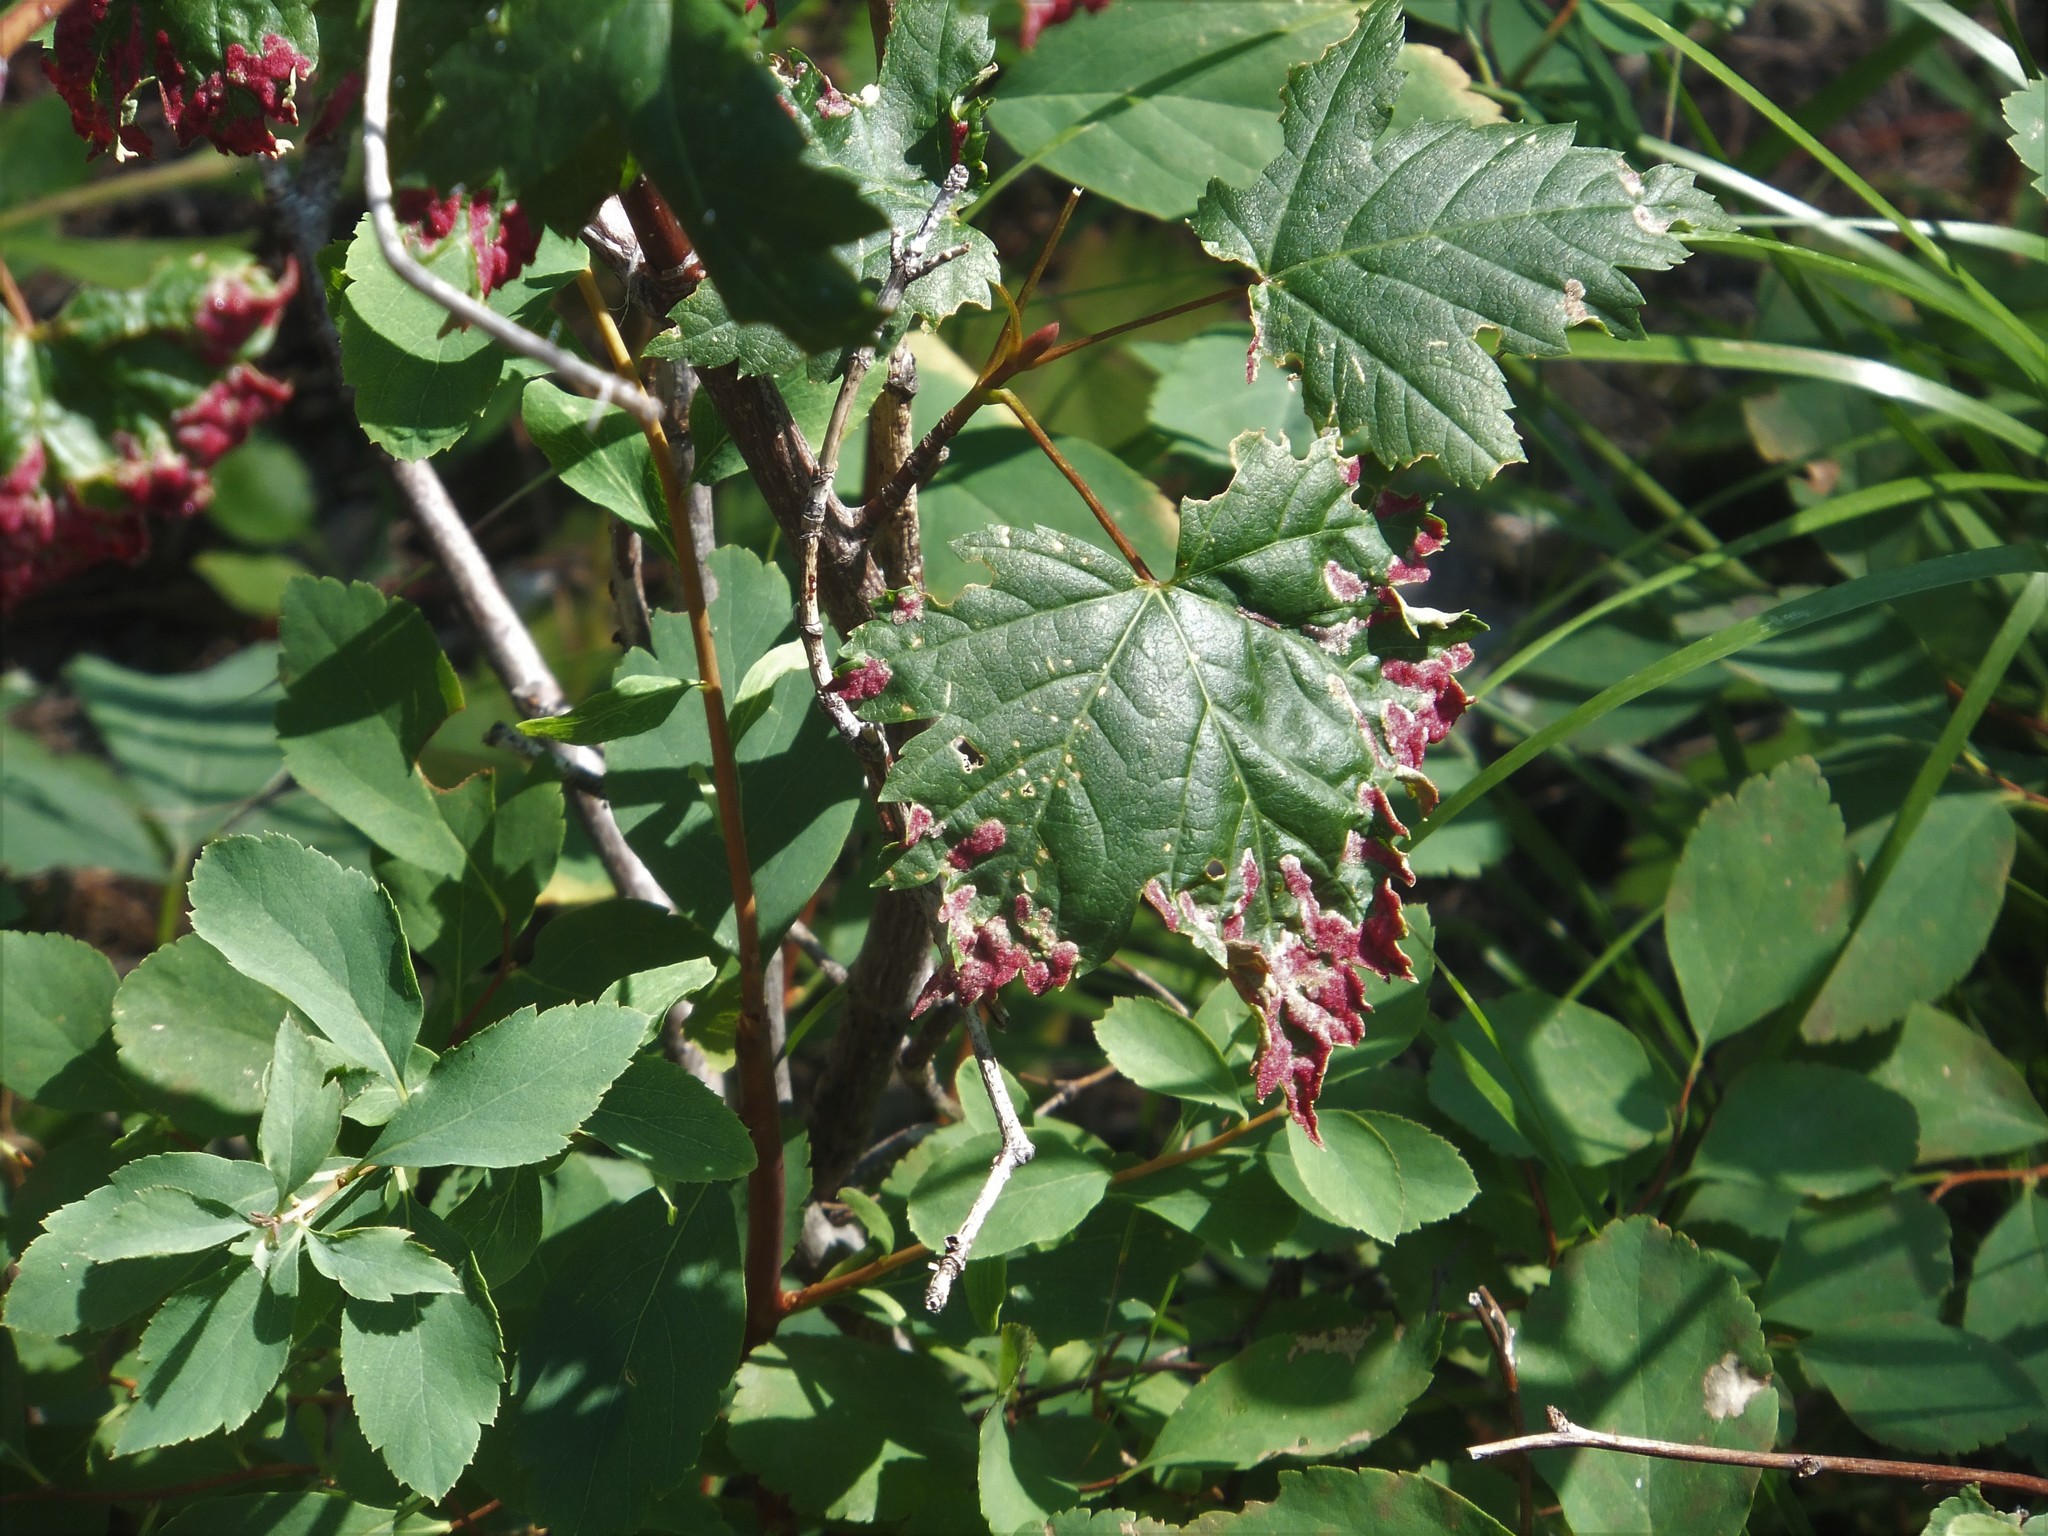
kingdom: Animalia
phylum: Arthropoda
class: Arachnida
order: Trombidiformes
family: Eriophyidae
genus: Aceria
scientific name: Aceria
